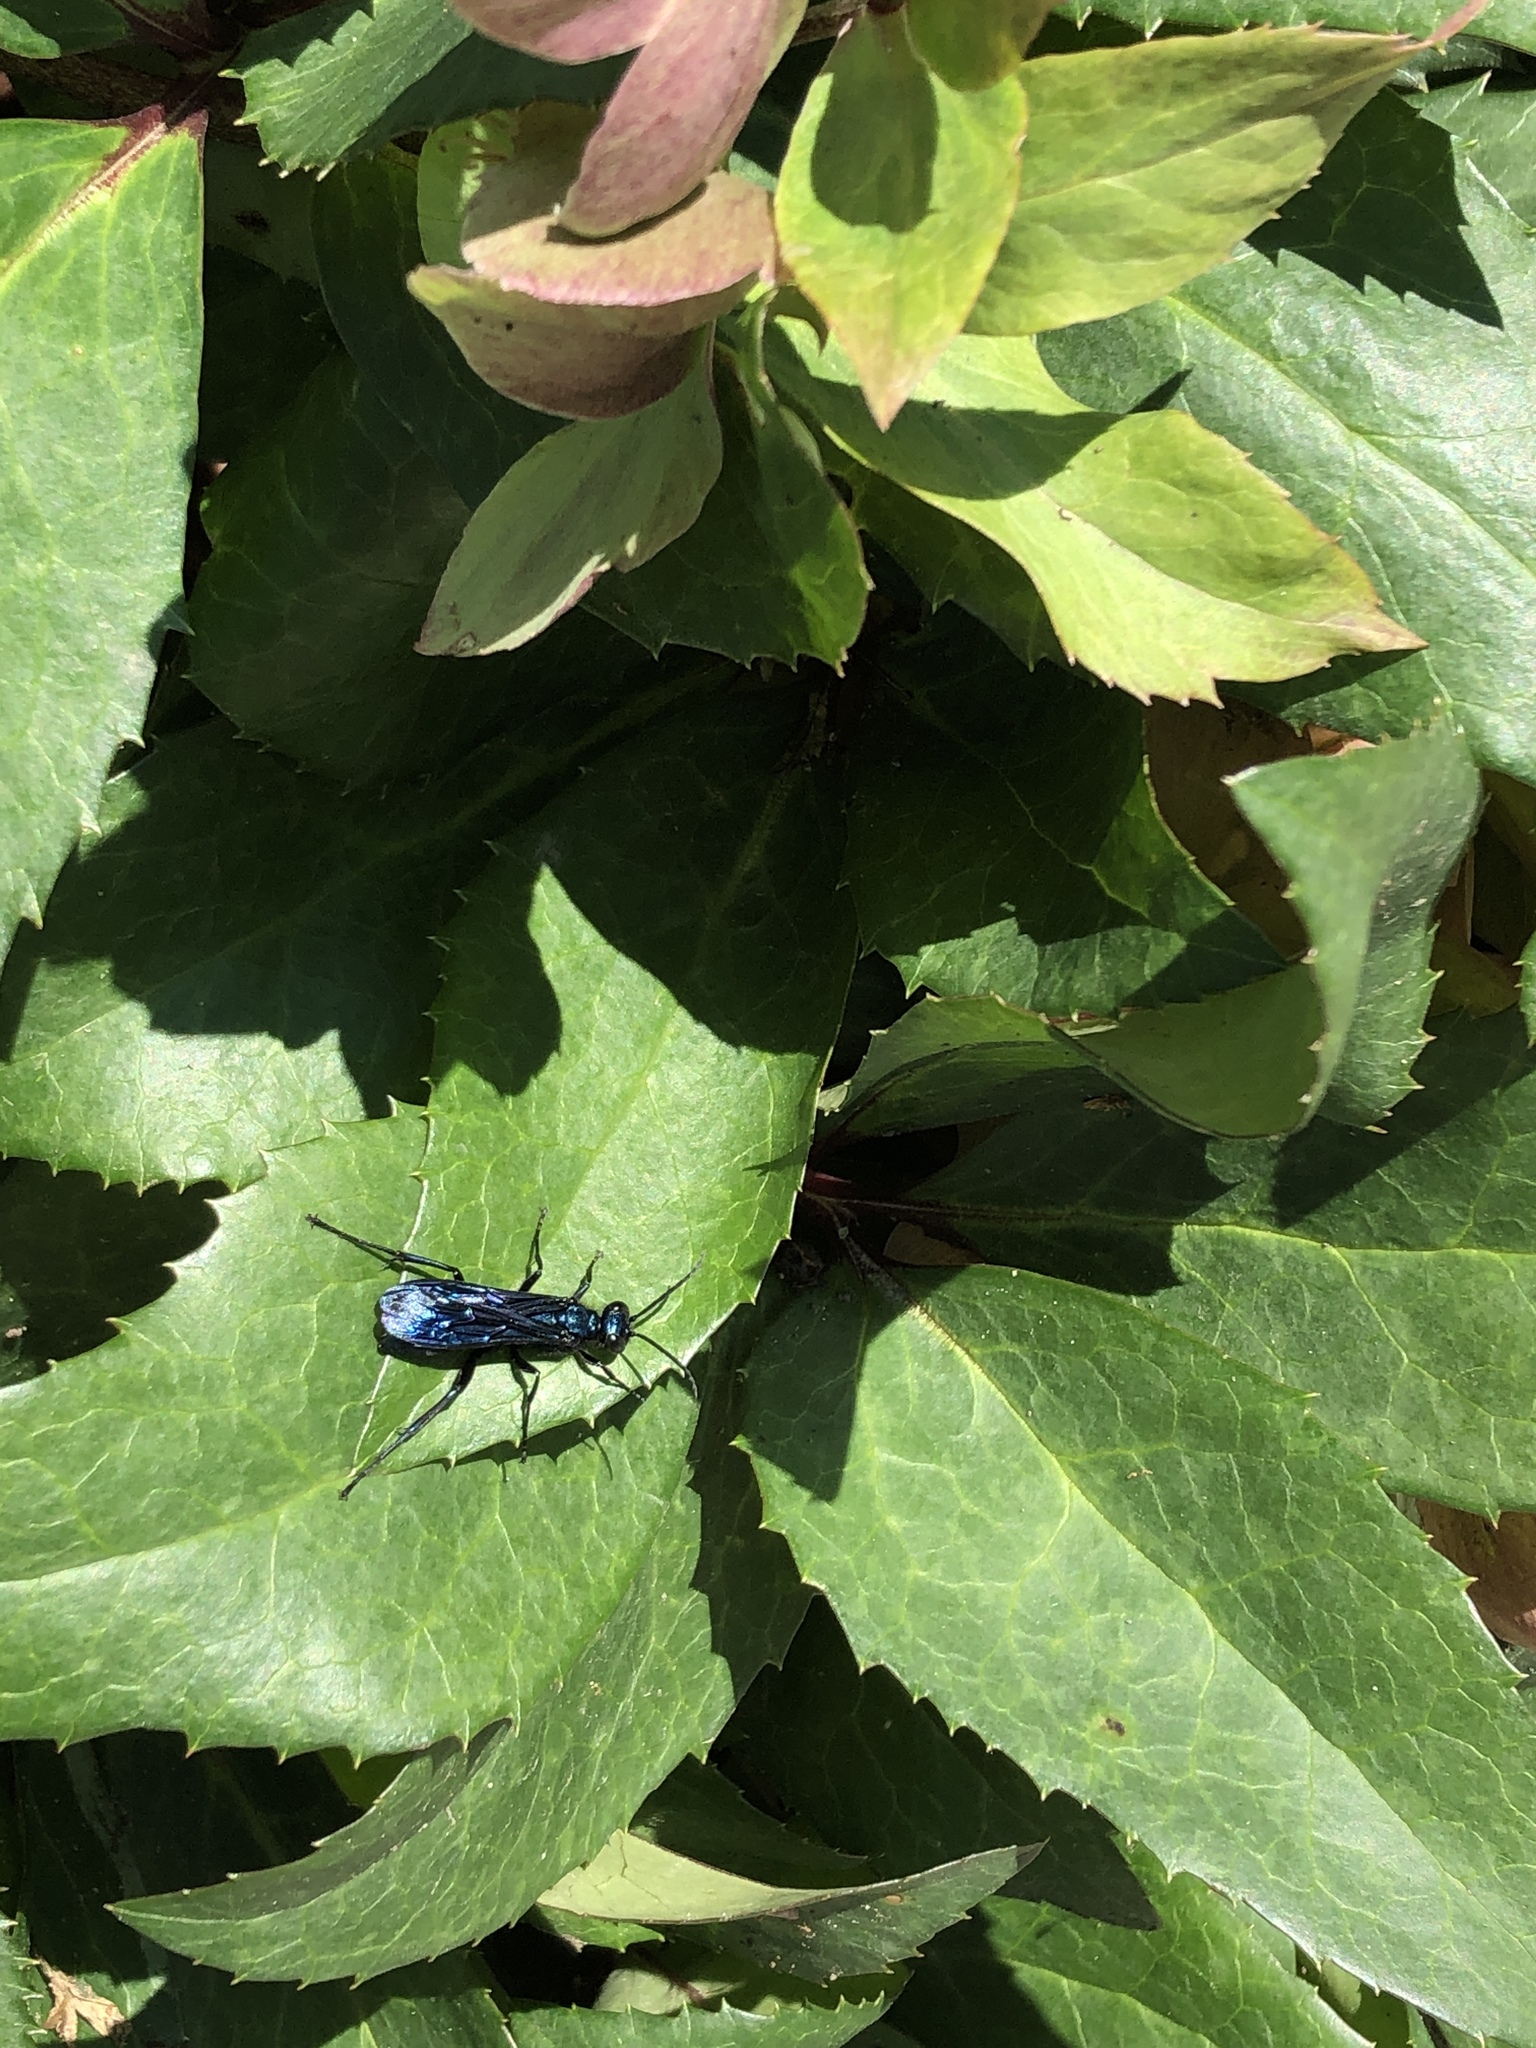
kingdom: Animalia
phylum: Arthropoda
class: Insecta
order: Hymenoptera
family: Sphecidae
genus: Chalybion
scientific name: Chalybion californicum
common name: Mud dauber
